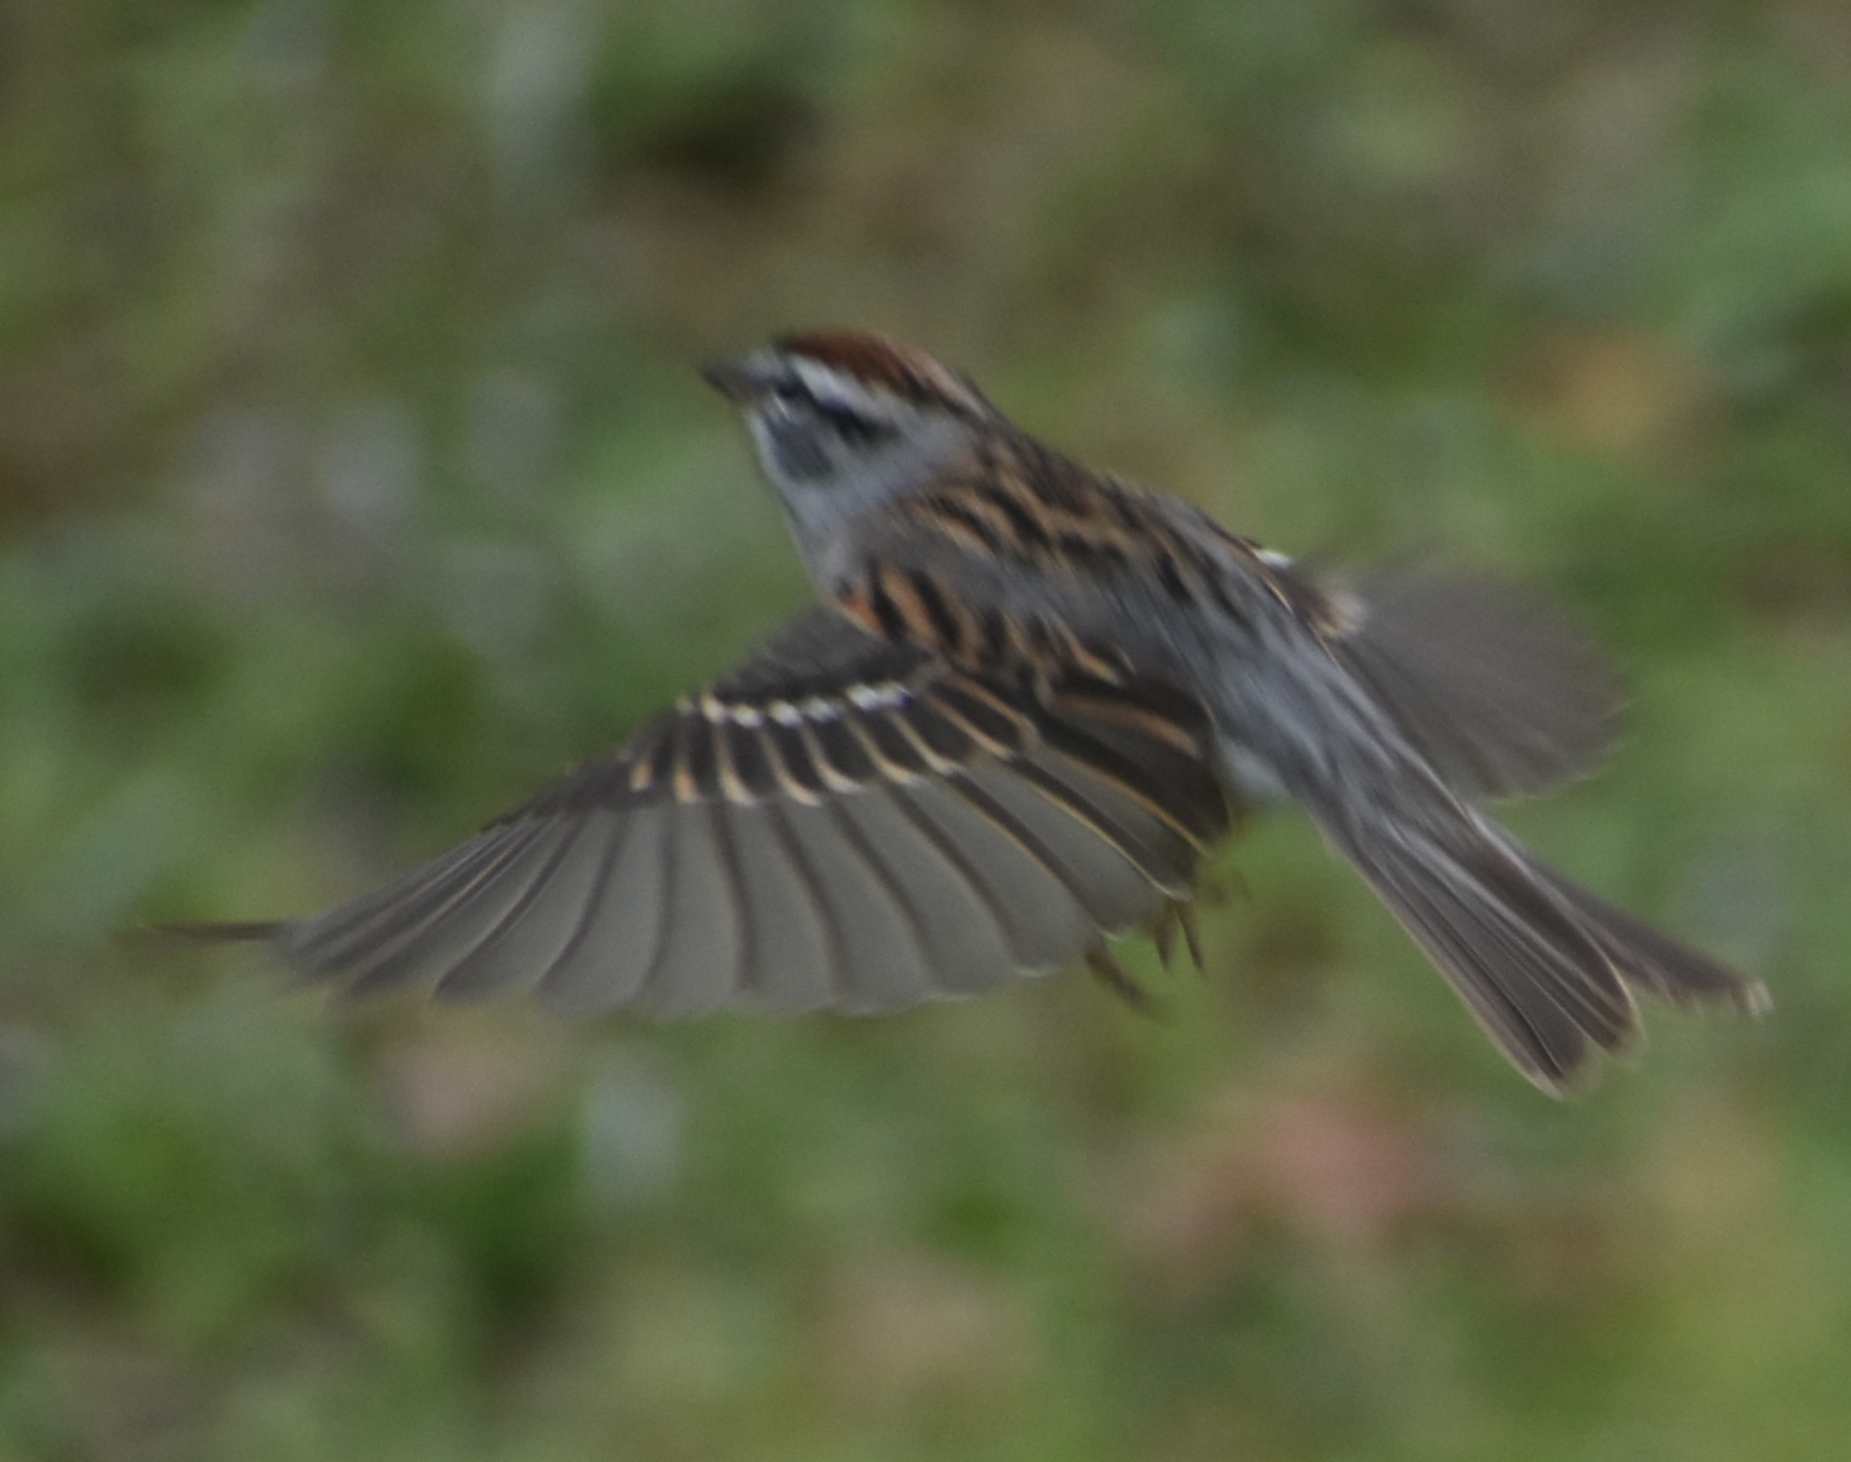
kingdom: Animalia
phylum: Chordata
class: Aves
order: Passeriformes
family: Passerellidae
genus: Spizella
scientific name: Spizella passerina
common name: Chipping sparrow
